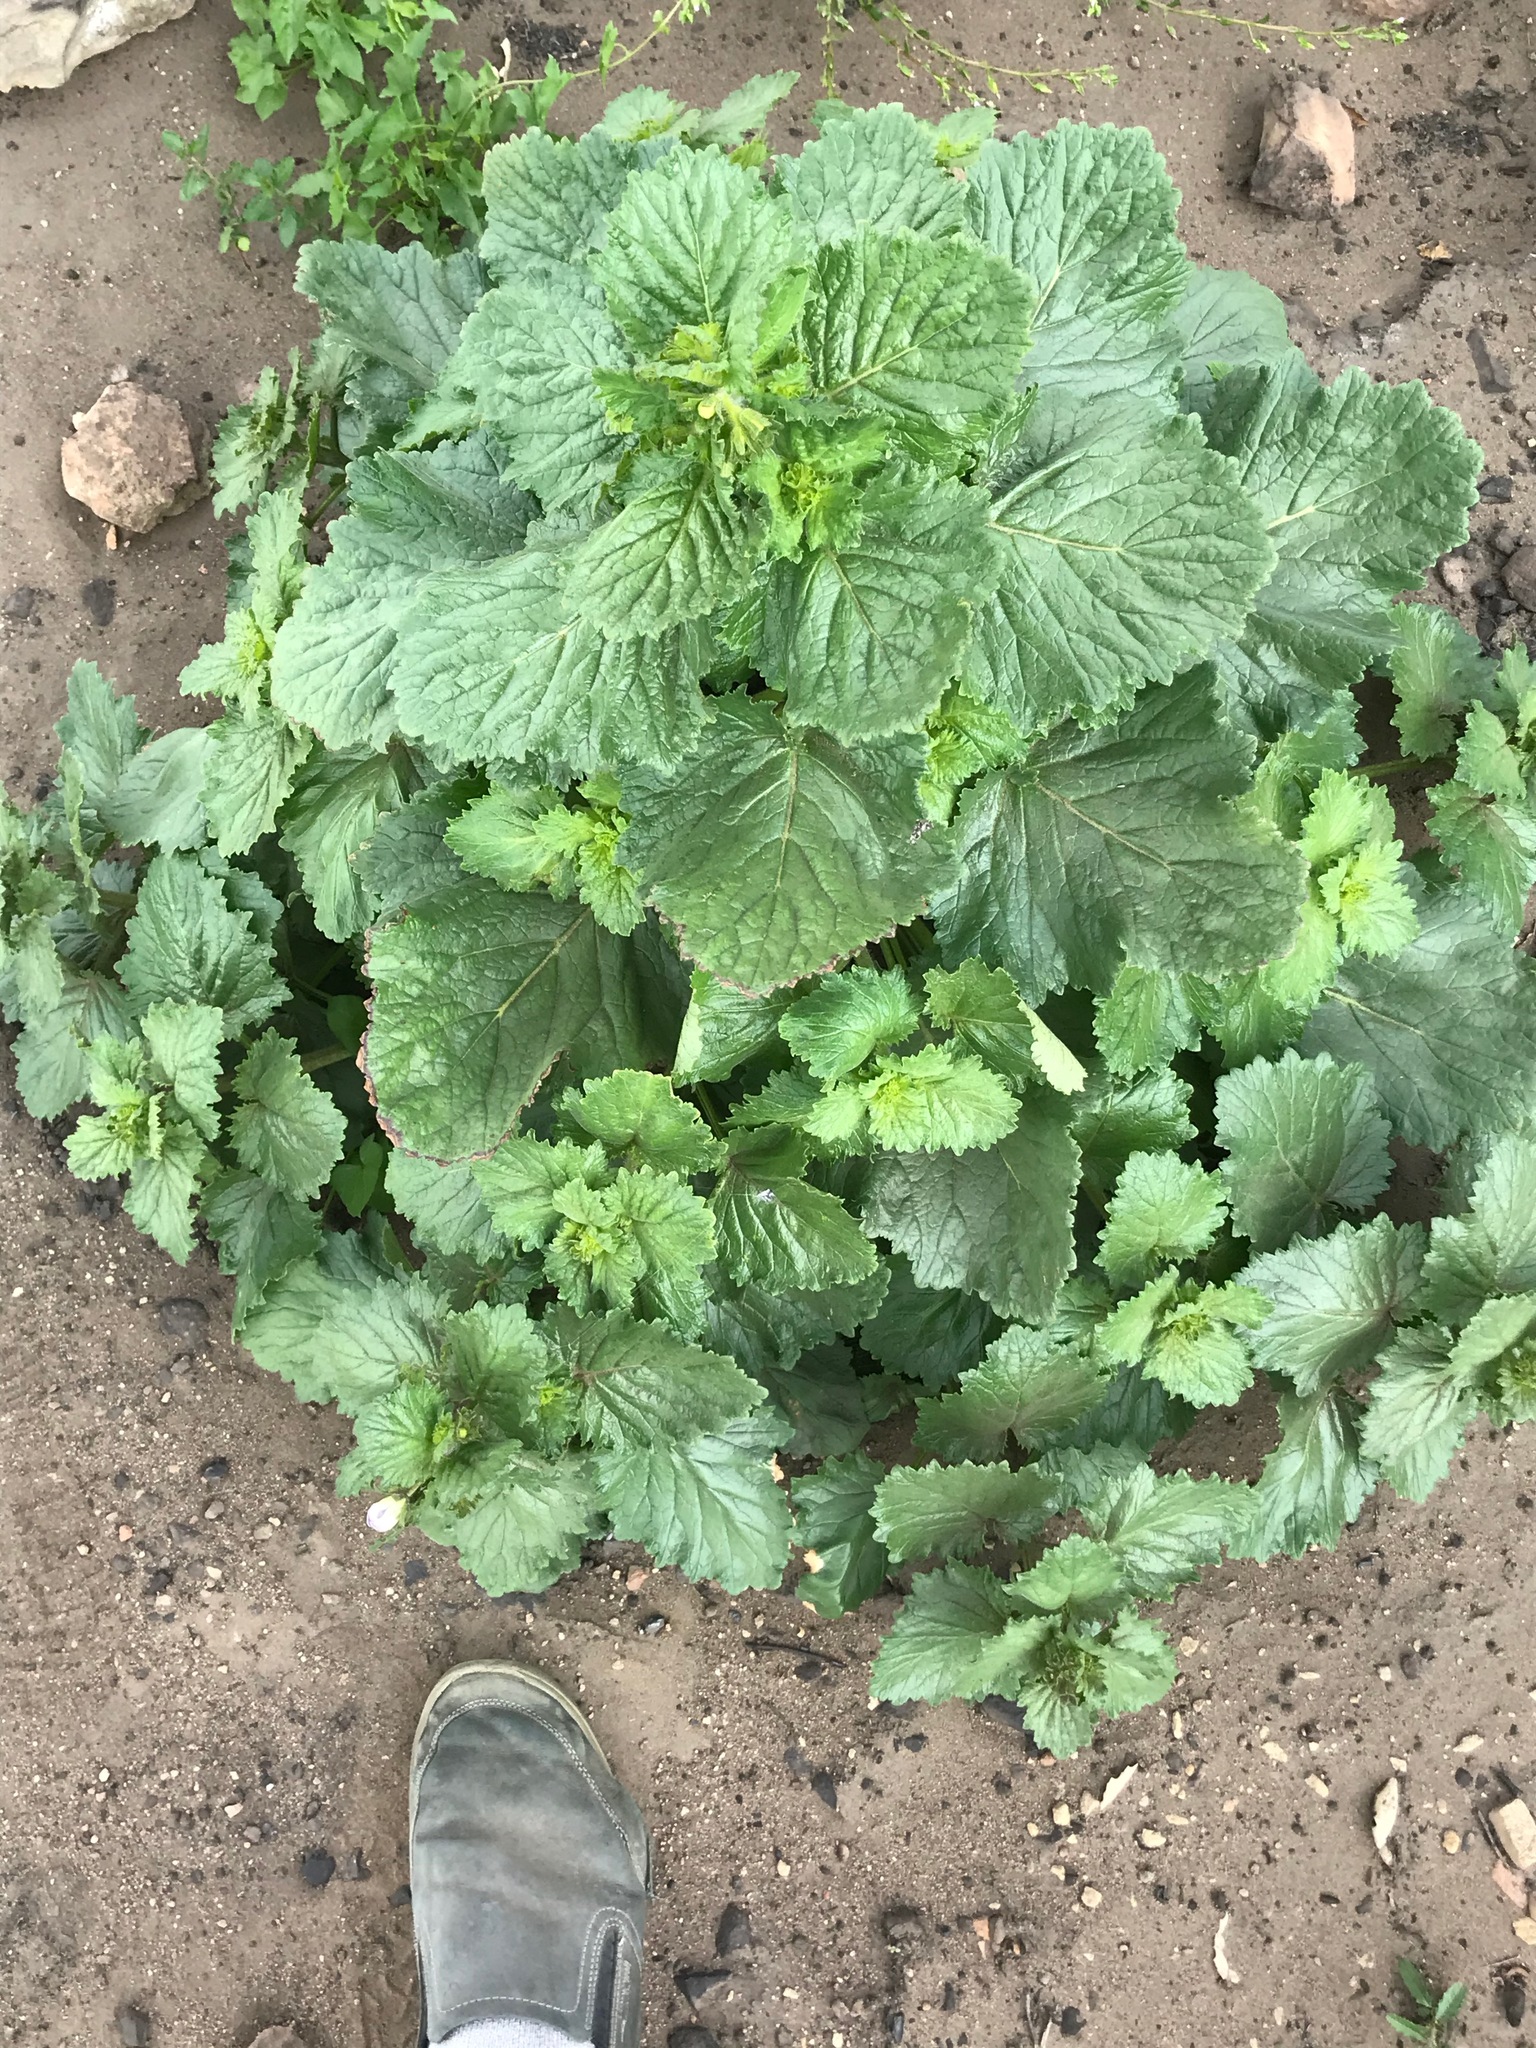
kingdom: Plantae
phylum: Tracheophyta
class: Magnoliopsida
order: Boraginales
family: Hydrophyllaceae
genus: Phacelia
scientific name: Phacelia grandiflora
